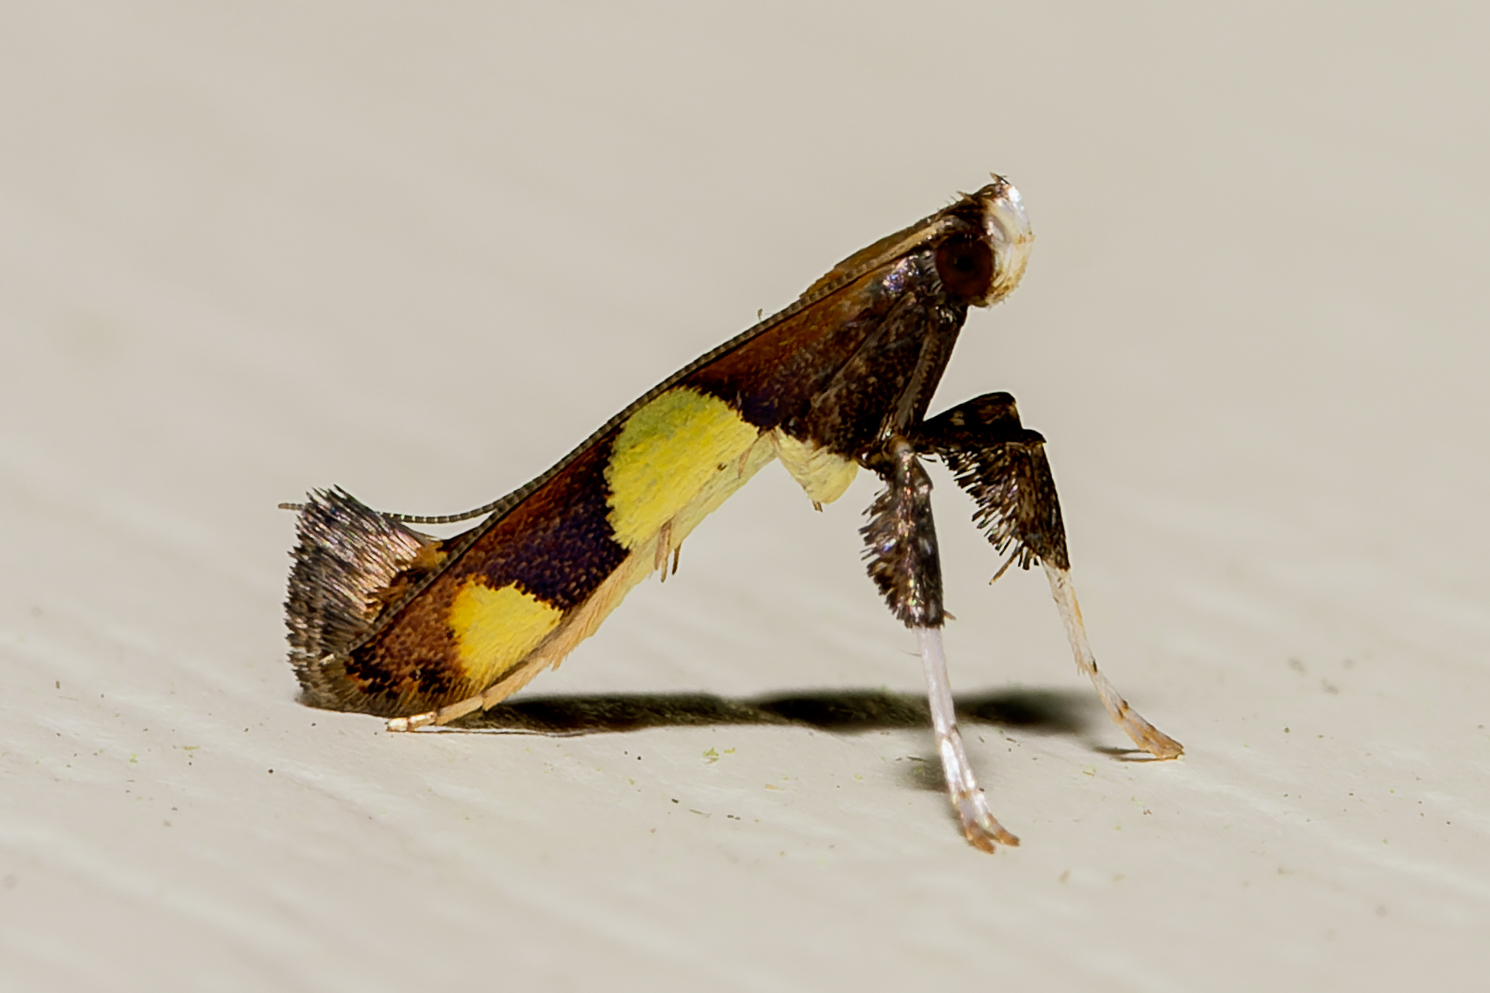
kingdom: Animalia
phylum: Arthropoda
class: Insecta
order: Lepidoptera
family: Gracillariidae
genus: Caloptilia
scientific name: Caloptilia bimaculatella
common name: Maple caloptilia moth
